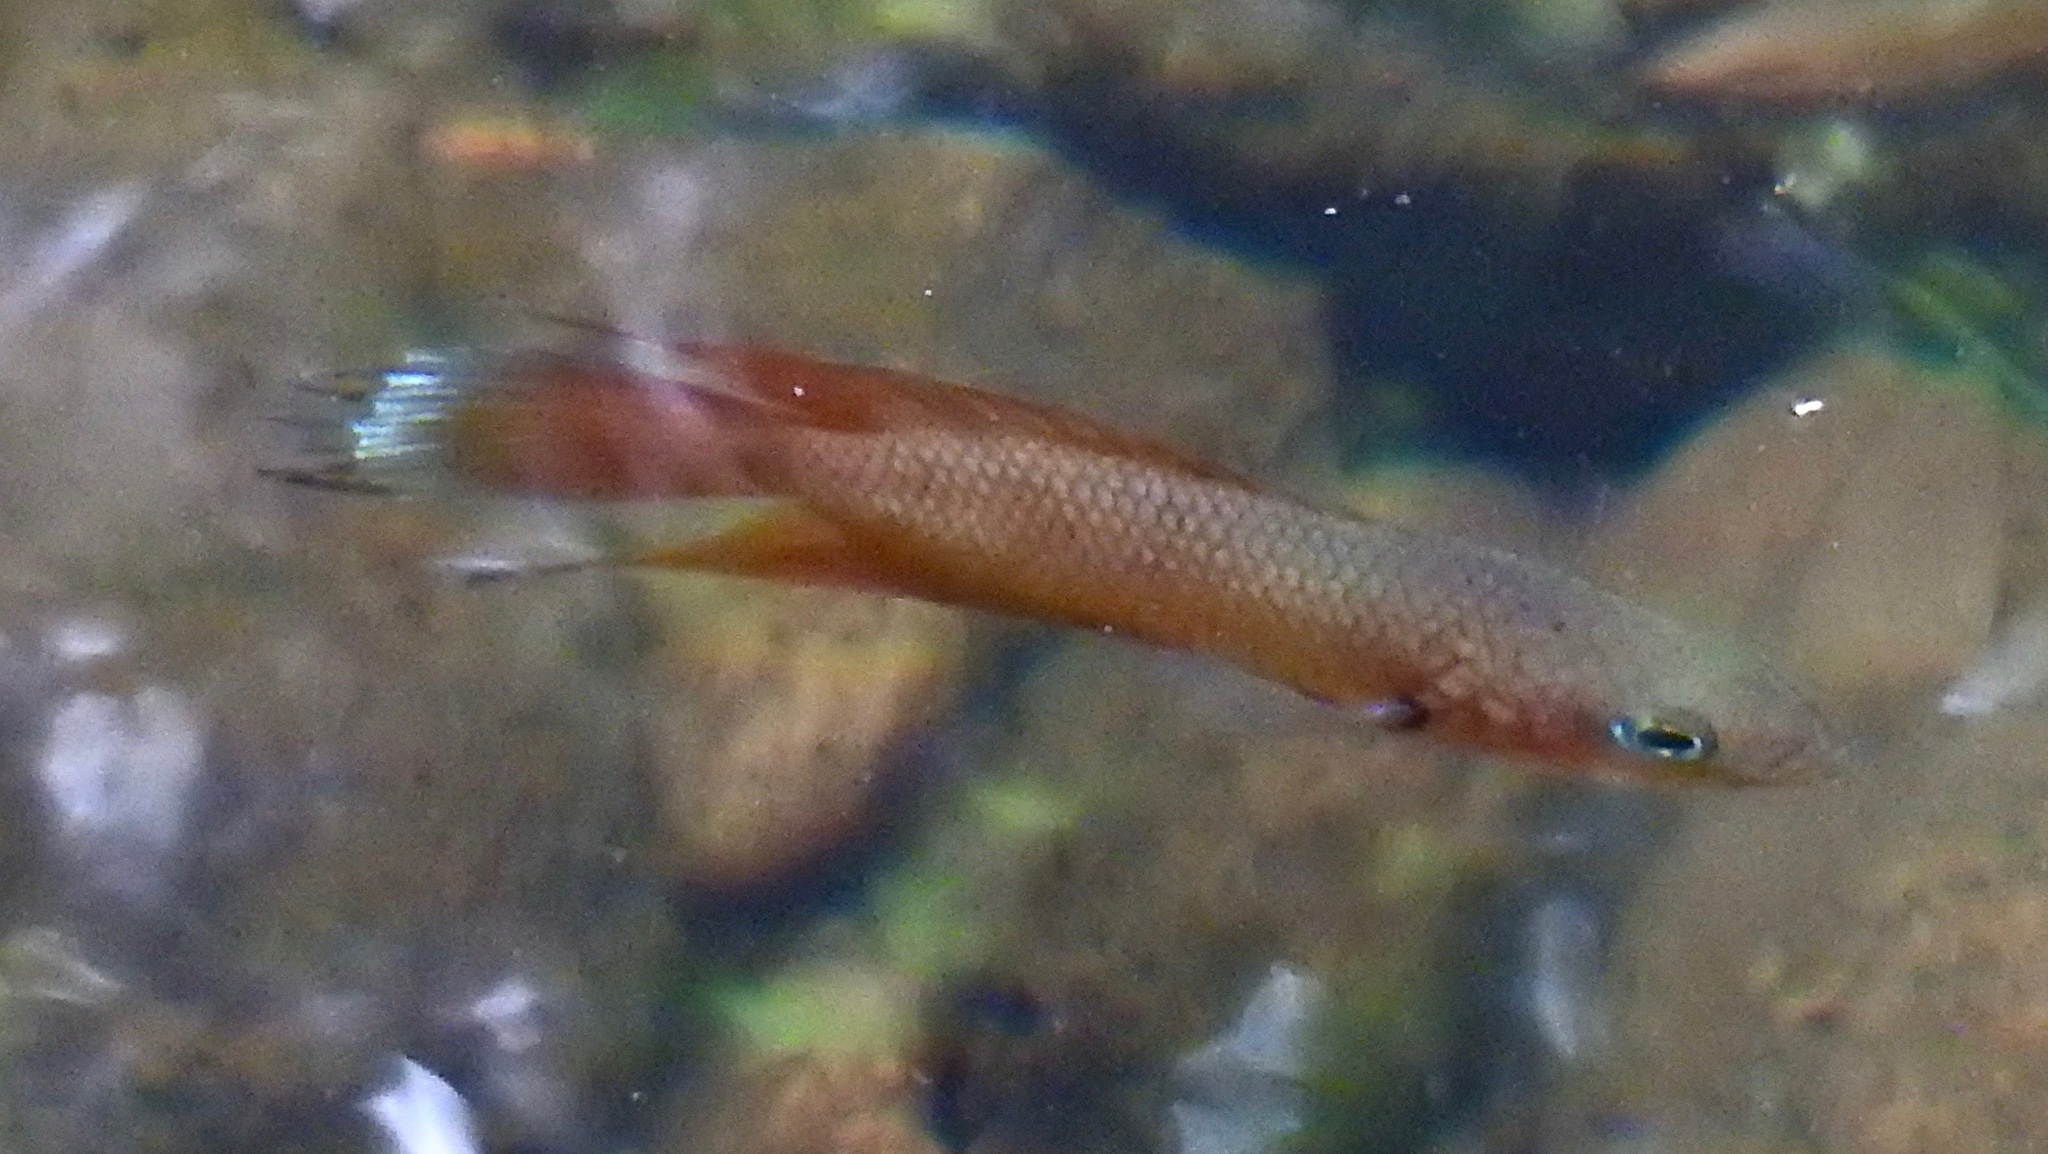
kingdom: Animalia
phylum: Chordata
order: Perciformes
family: Osphronemidae
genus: Belontia
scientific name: Belontia signata
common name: Combtail
